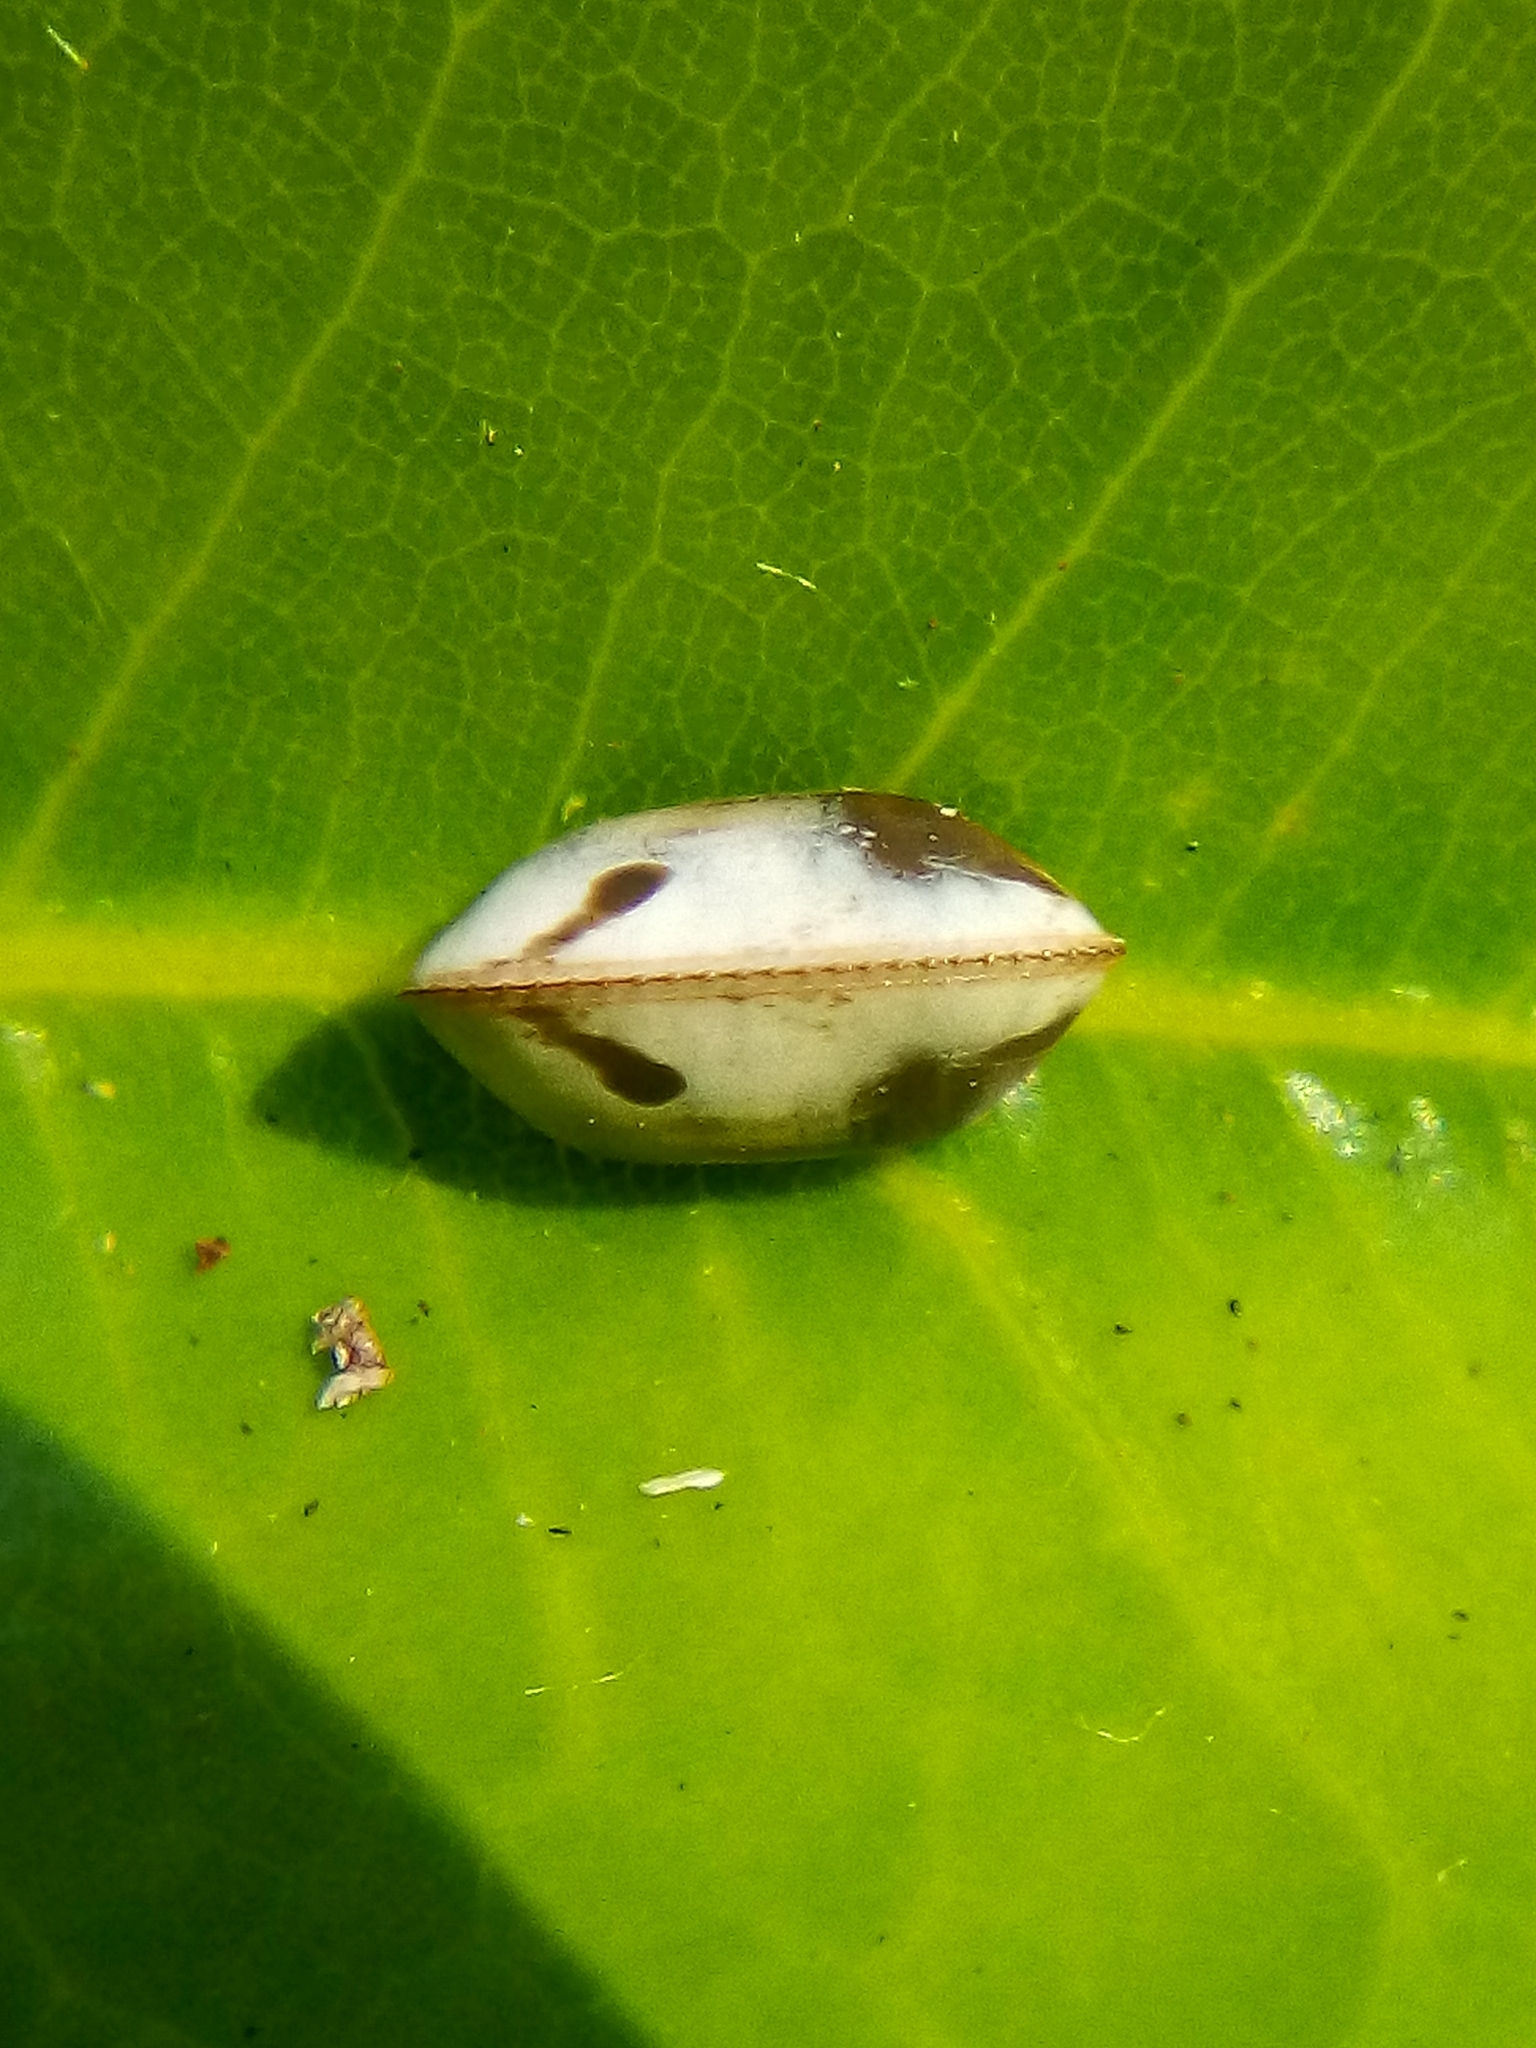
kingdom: Animalia
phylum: Arthropoda
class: Insecta
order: Blattodea
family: Ectobiidae
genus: Balta
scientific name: Balta bicolor
